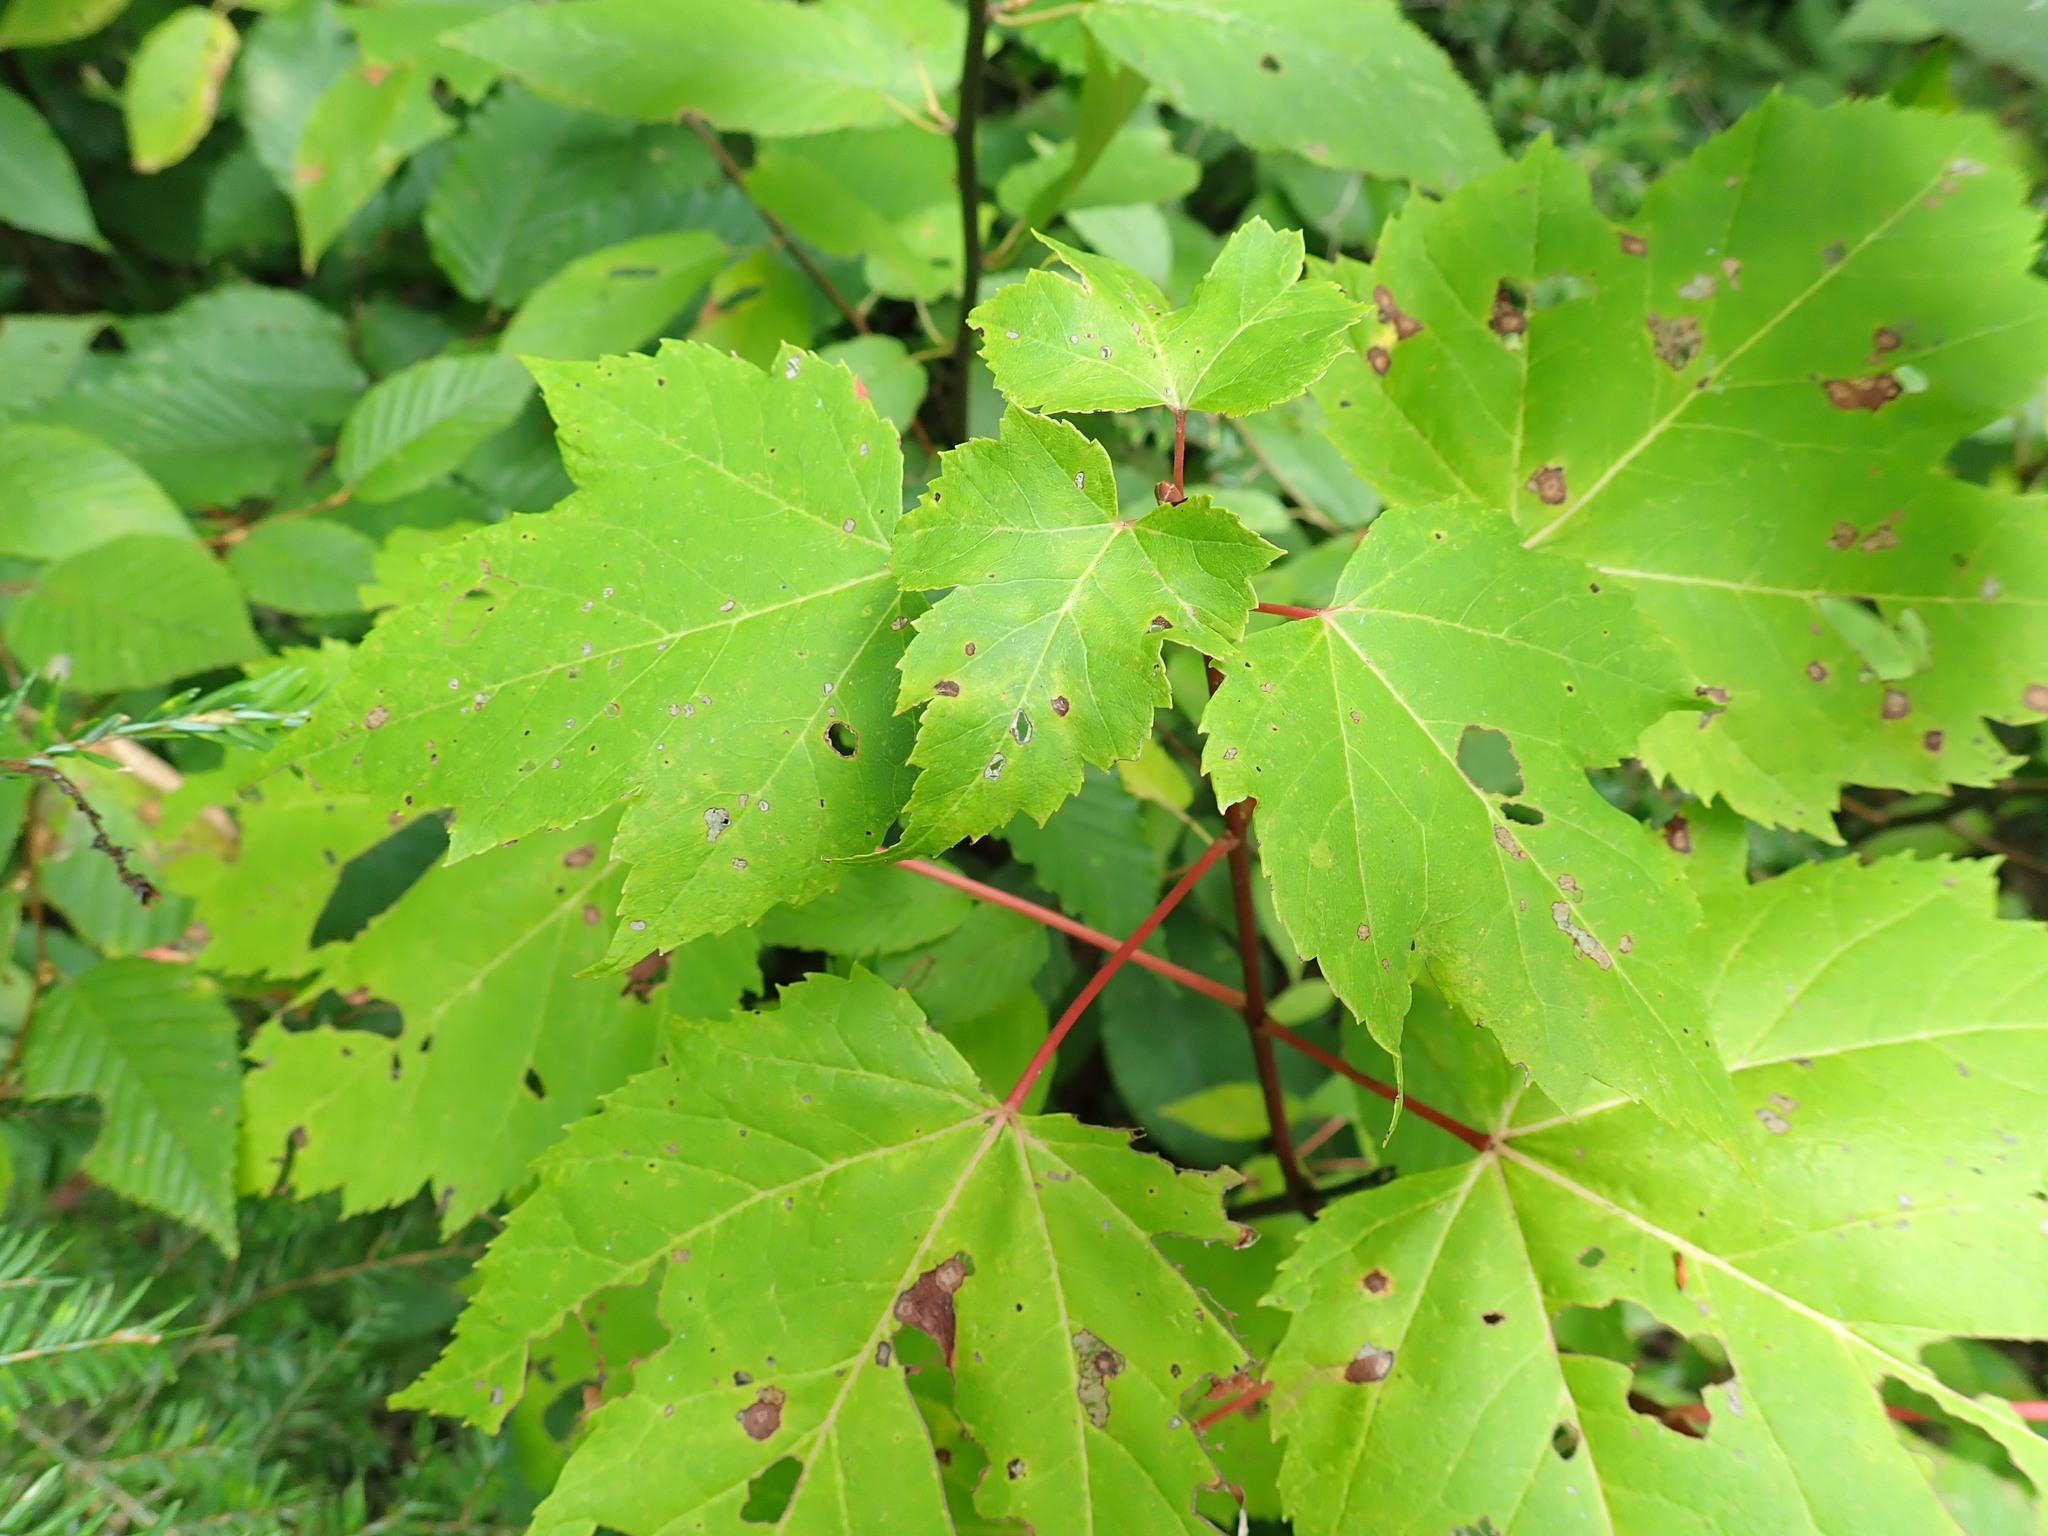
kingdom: Plantae
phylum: Tracheophyta
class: Magnoliopsida
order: Sapindales
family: Sapindaceae
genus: Acer
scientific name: Acer rubrum
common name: Red maple
